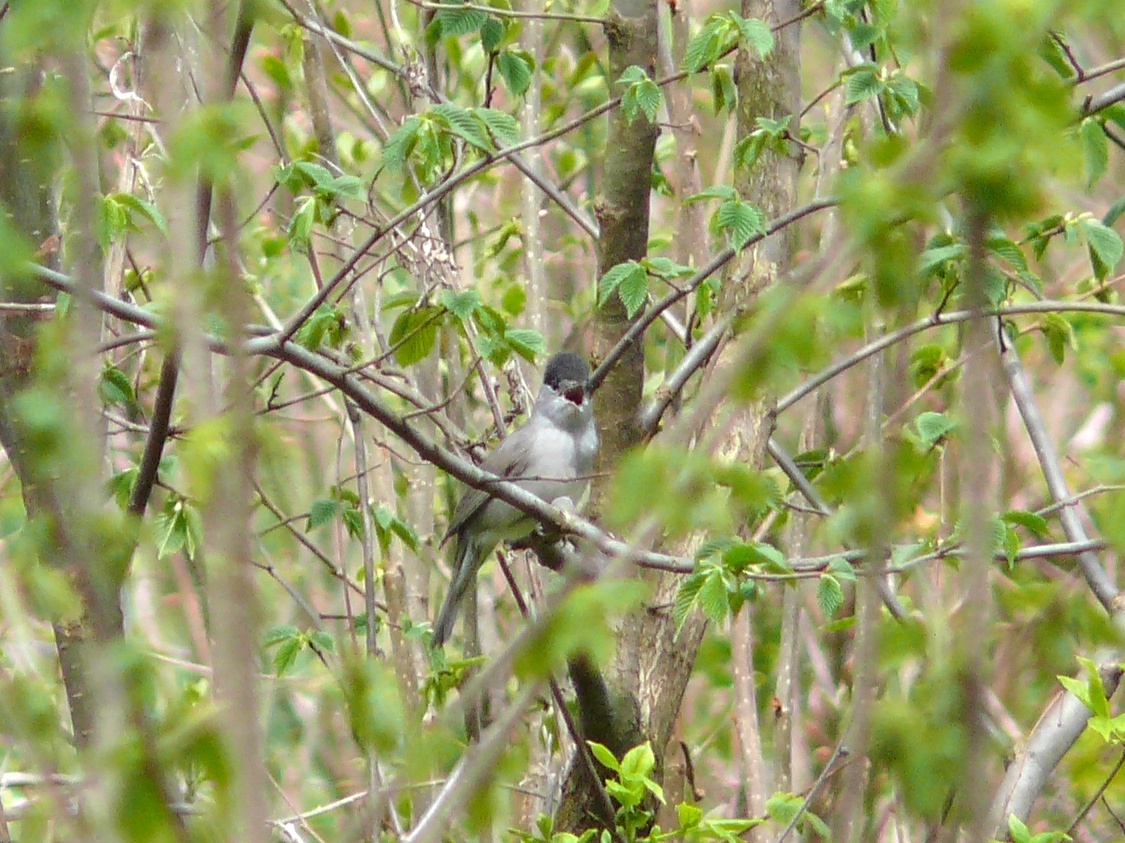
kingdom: Animalia
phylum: Chordata
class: Aves
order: Passeriformes
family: Sylviidae
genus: Sylvia
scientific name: Sylvia atricapilla
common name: Eurasian blackcap
